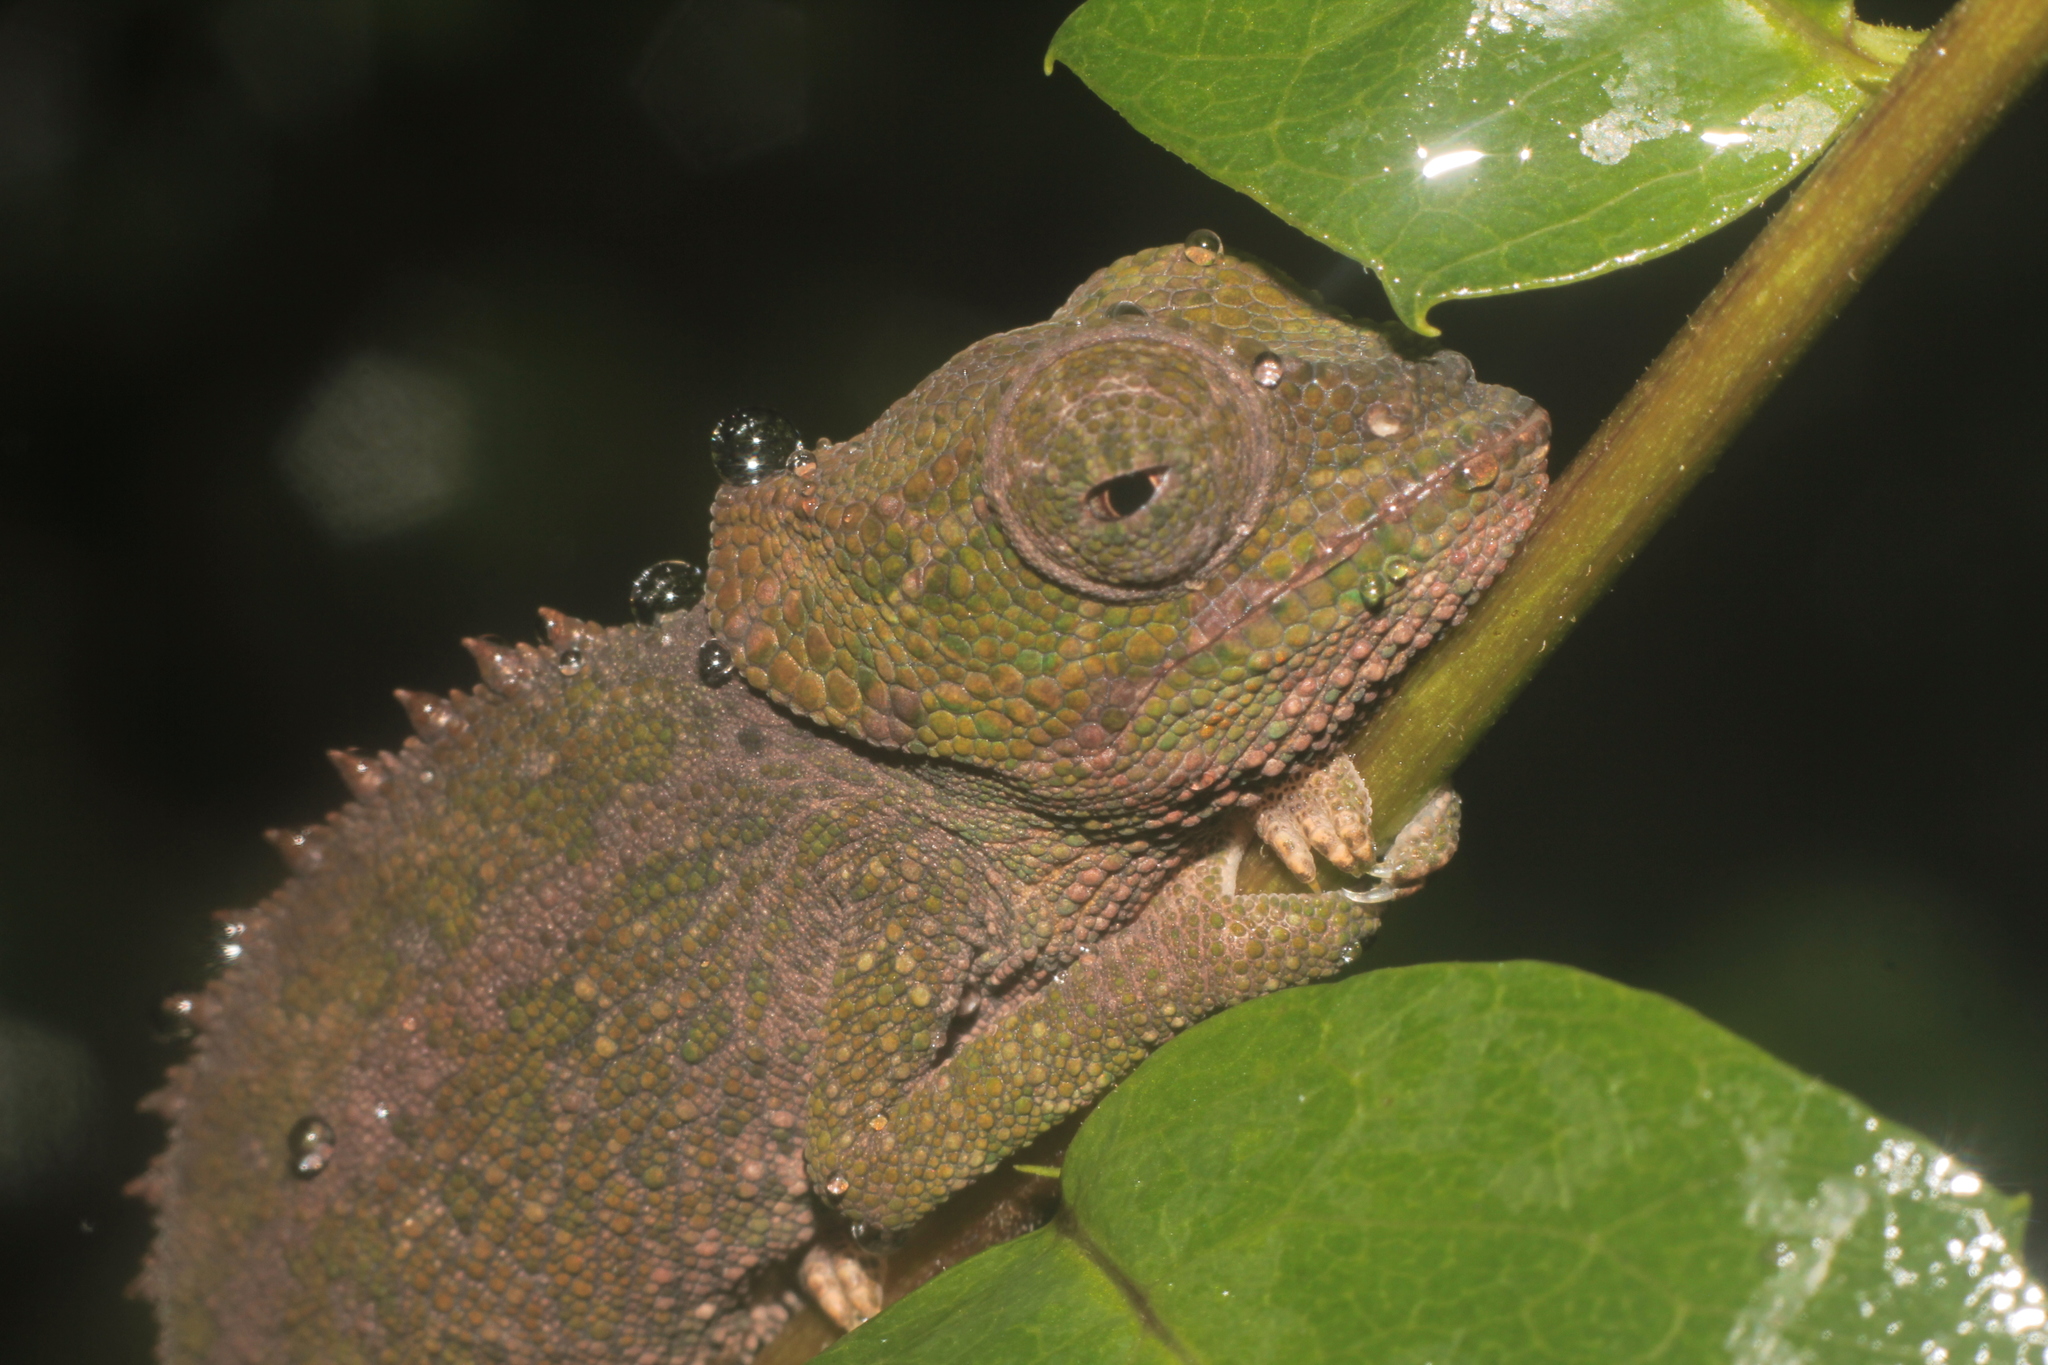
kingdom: Animalia
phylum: Chordata
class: Squamata
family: Chamaeleonidae
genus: Calumma
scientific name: Calumma brevicorne
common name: Short-horned chameleon
